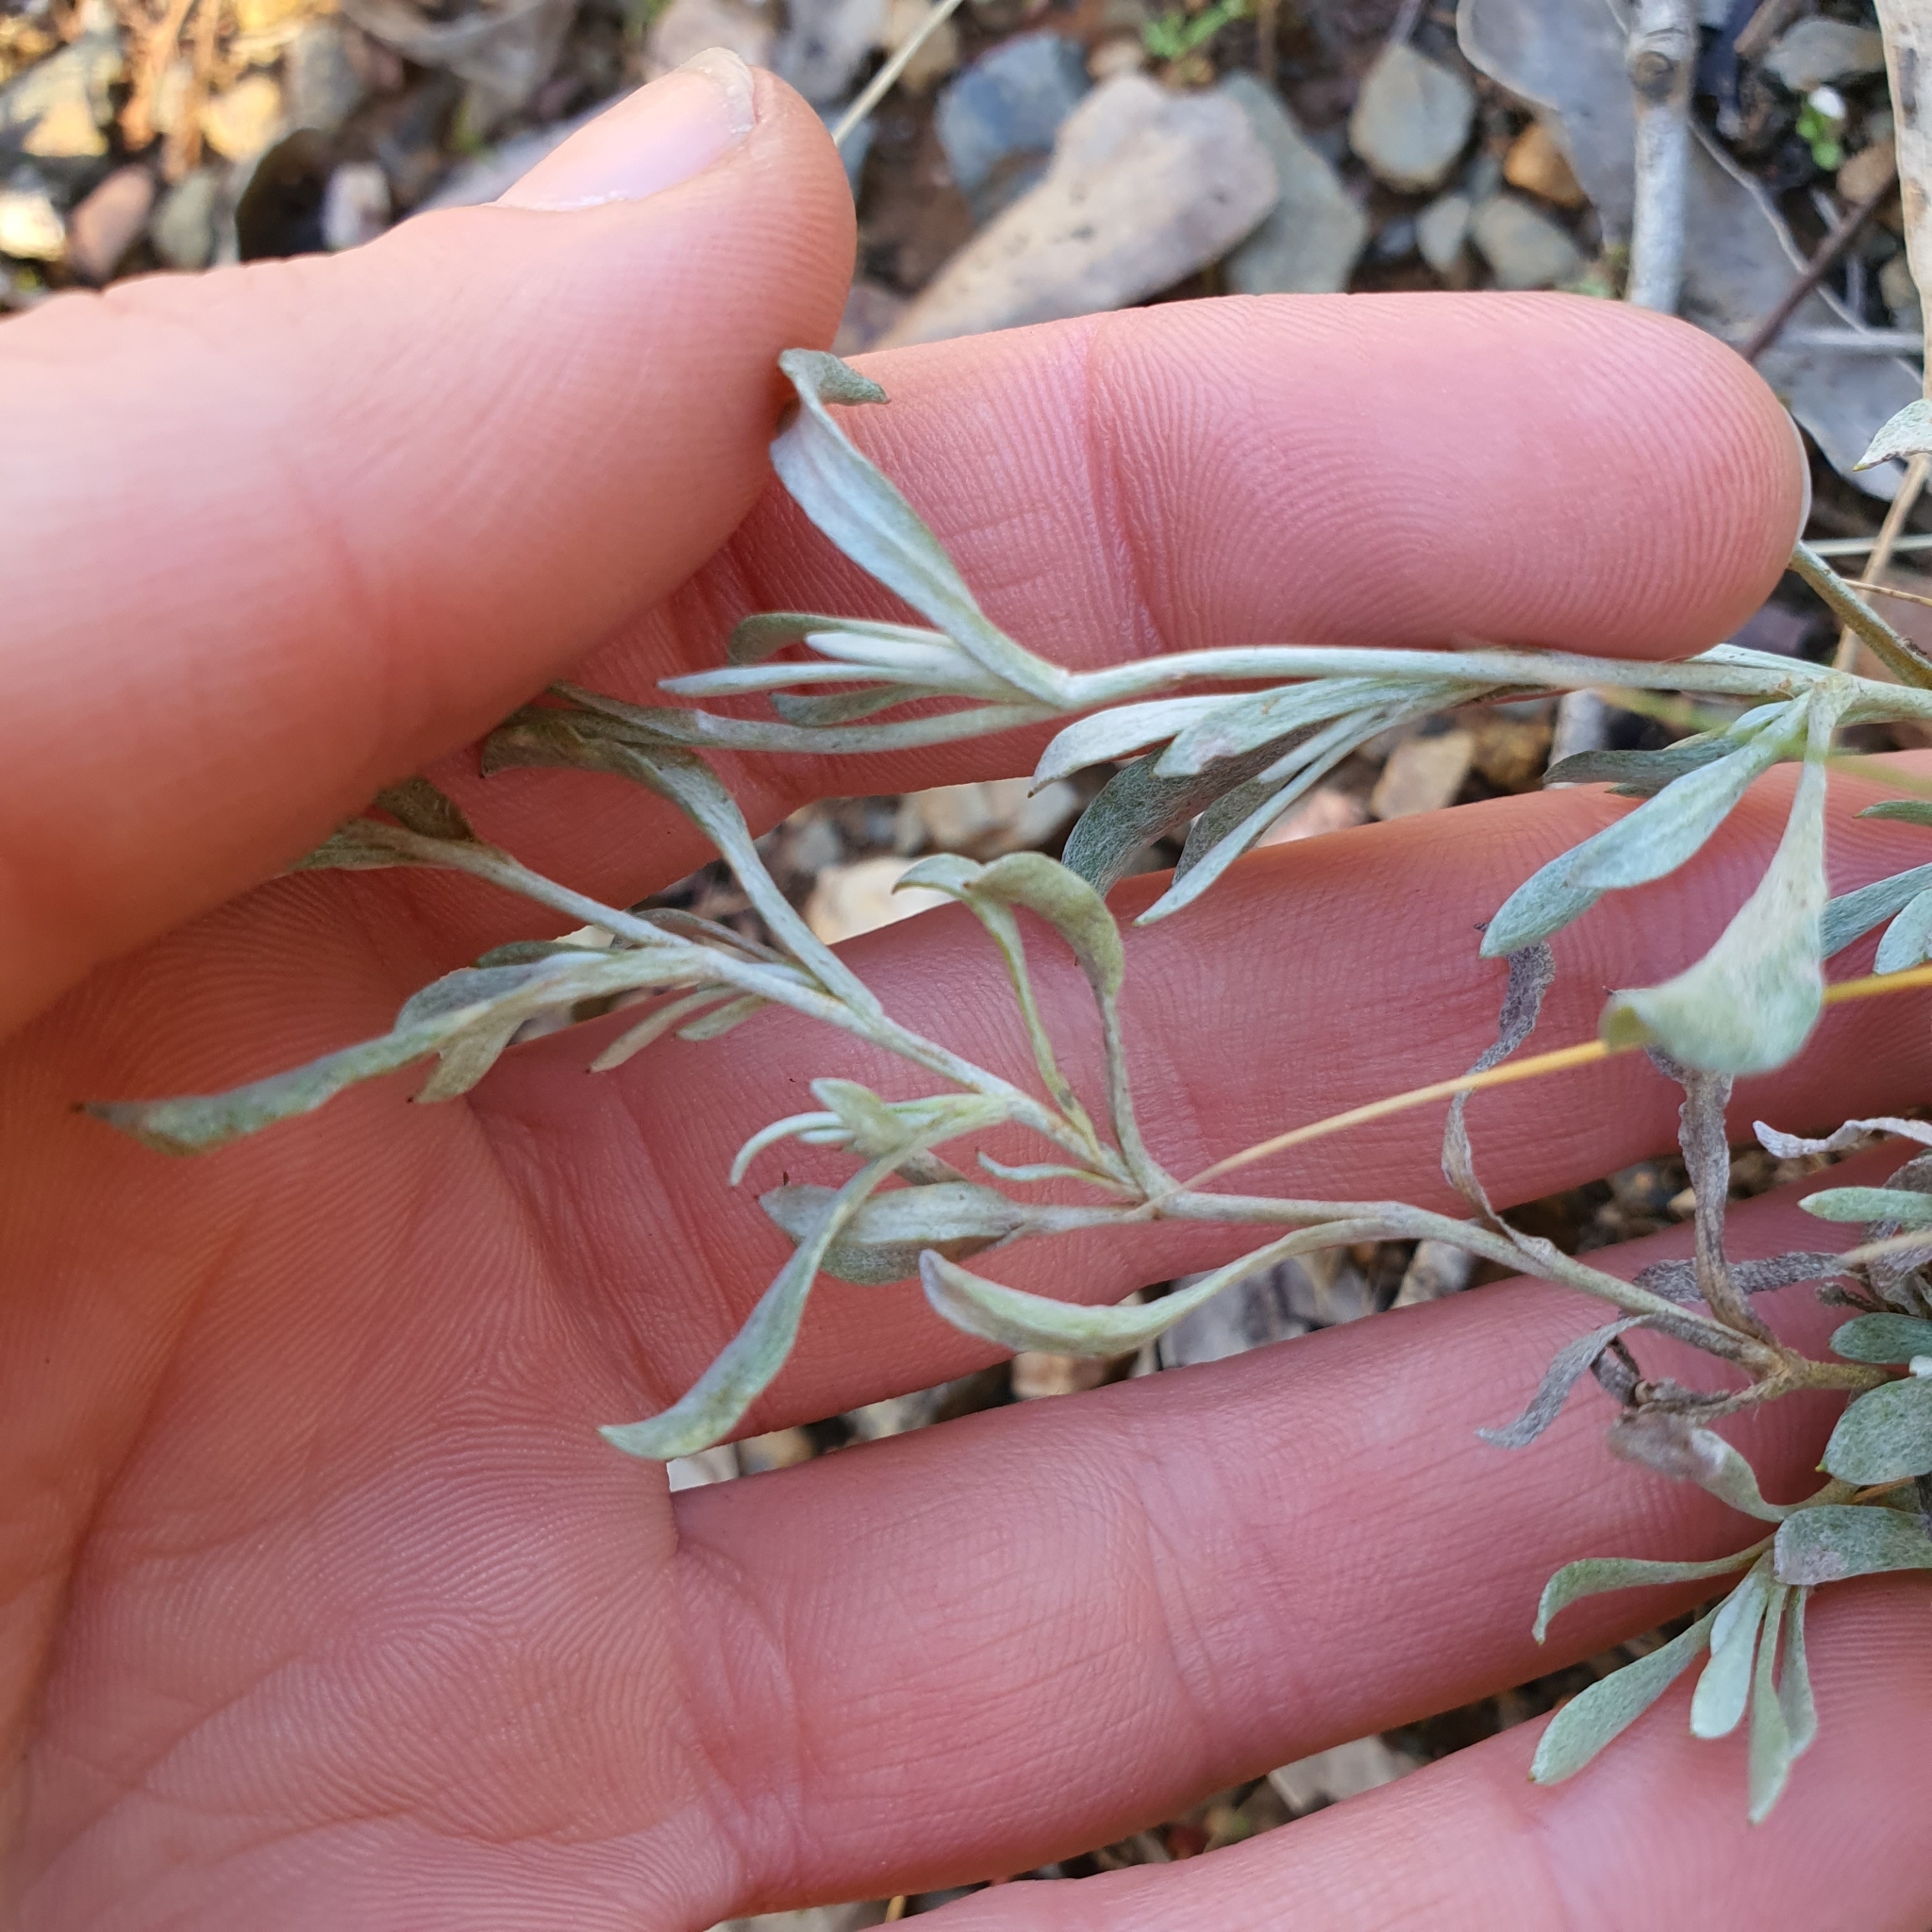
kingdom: Plantae
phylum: Tracheophyta
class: Magnoliopsida
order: Asterales
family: Asteraceae
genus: Chrysocephalum
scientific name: Chrysocephalum apiculatum
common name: Common everlasting
